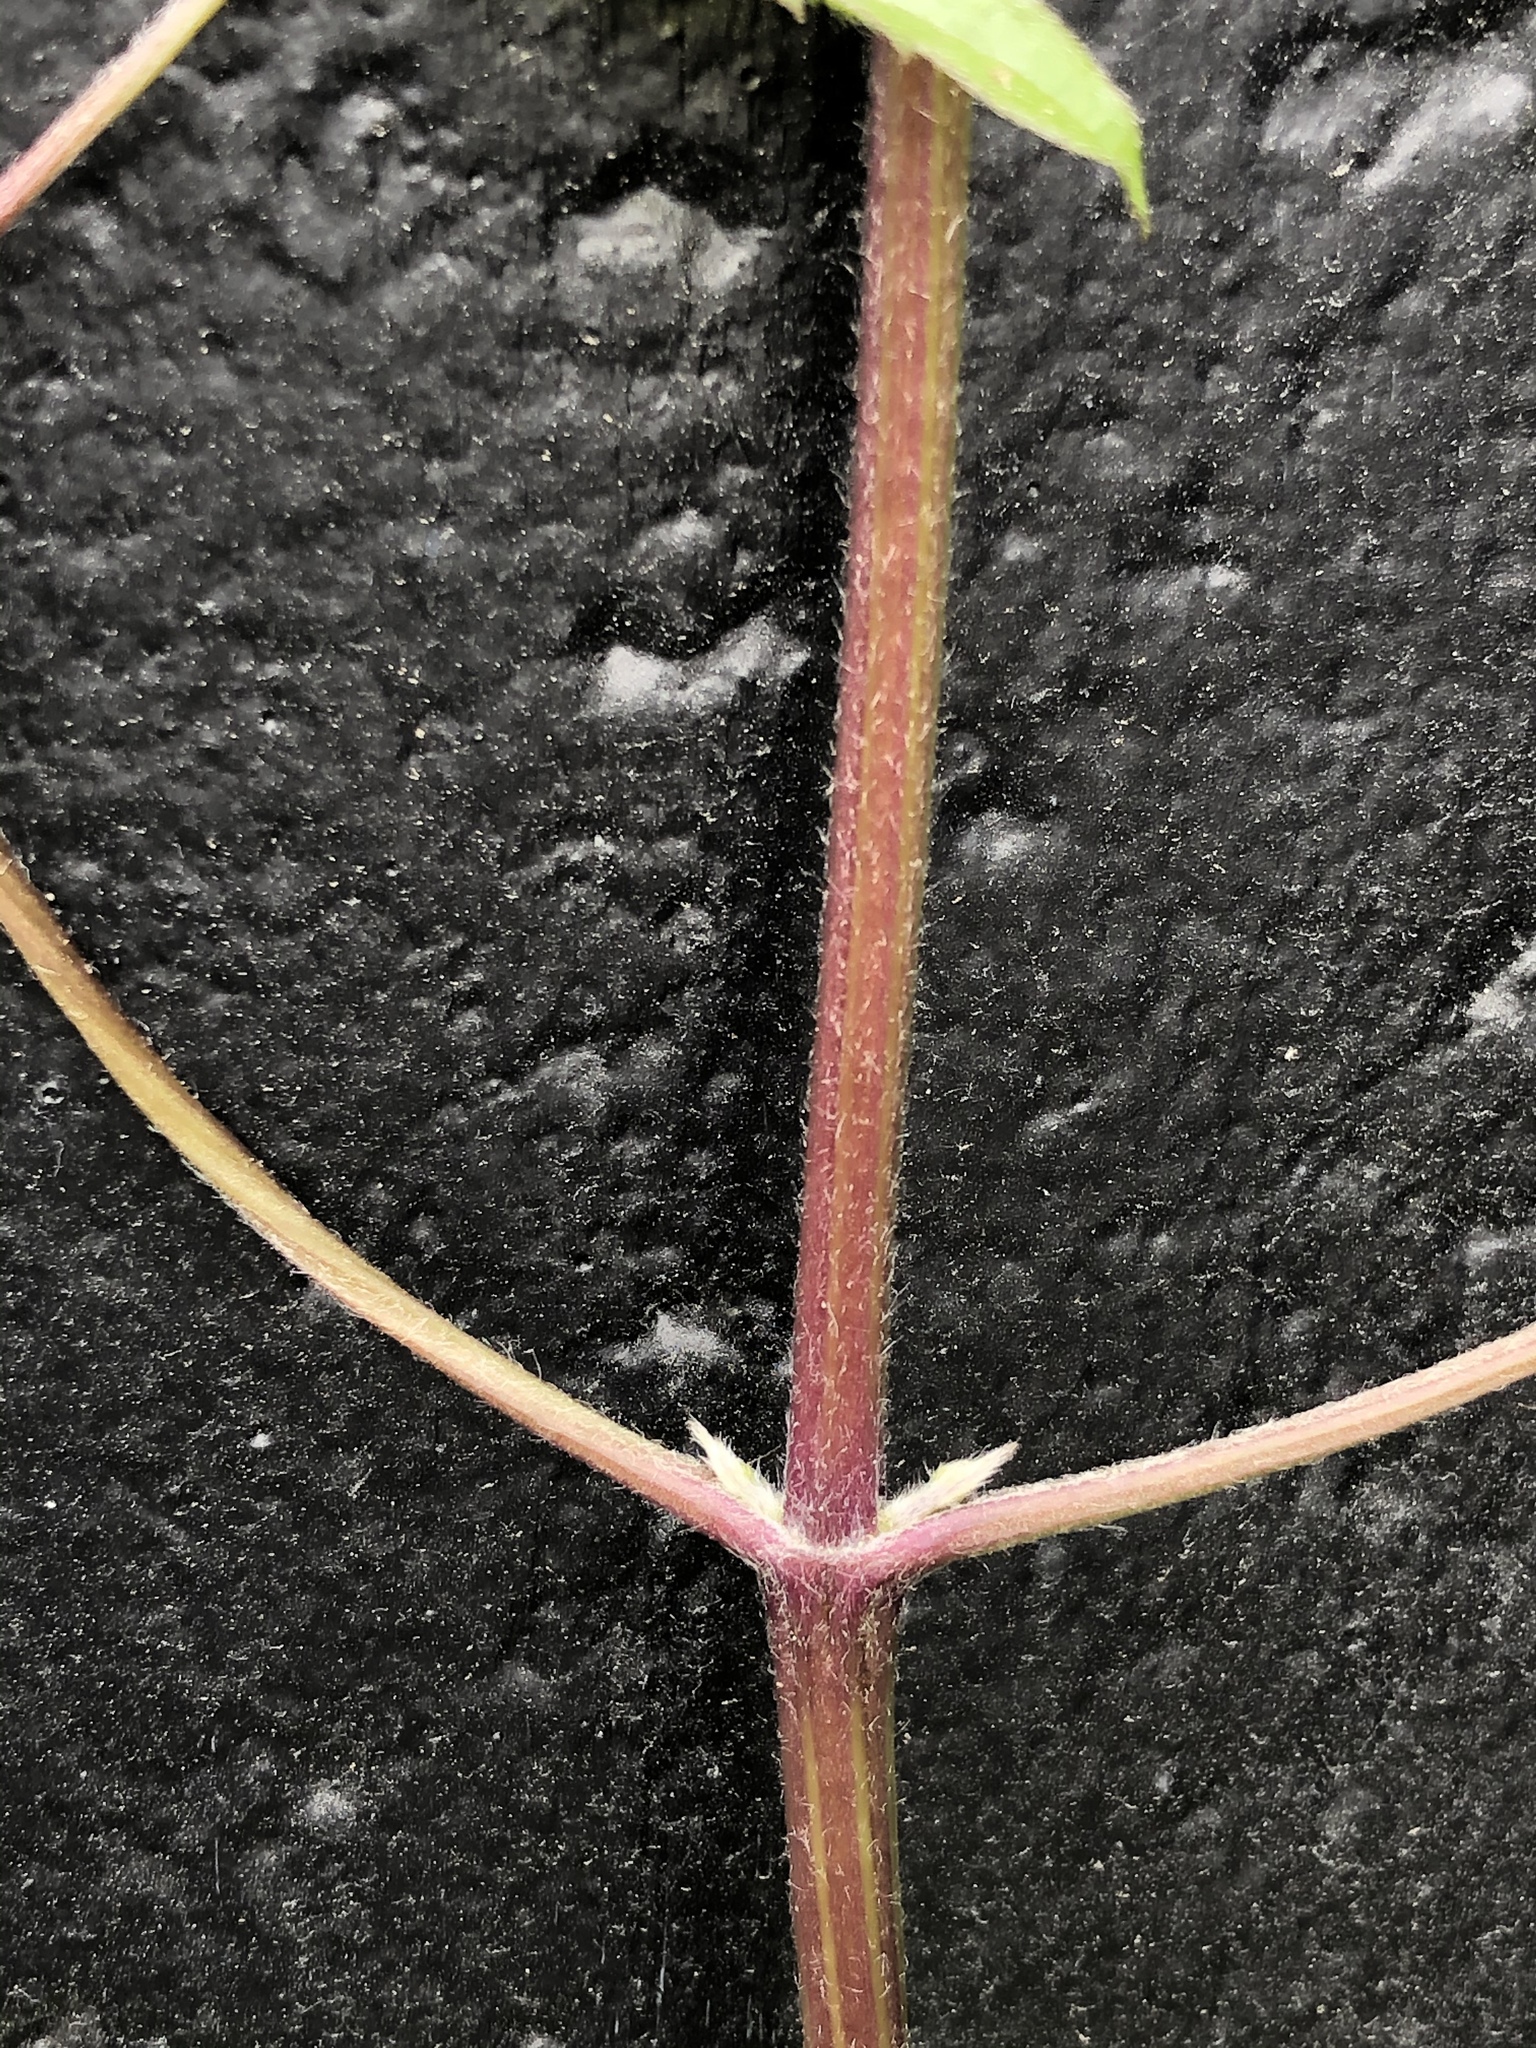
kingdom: Plantae
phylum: Tracheophyta
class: Magnoliopsida
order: Ranunculales
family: Ranunculaceae
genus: Clematis
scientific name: Clematis vitalba
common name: Evergreen clematis
